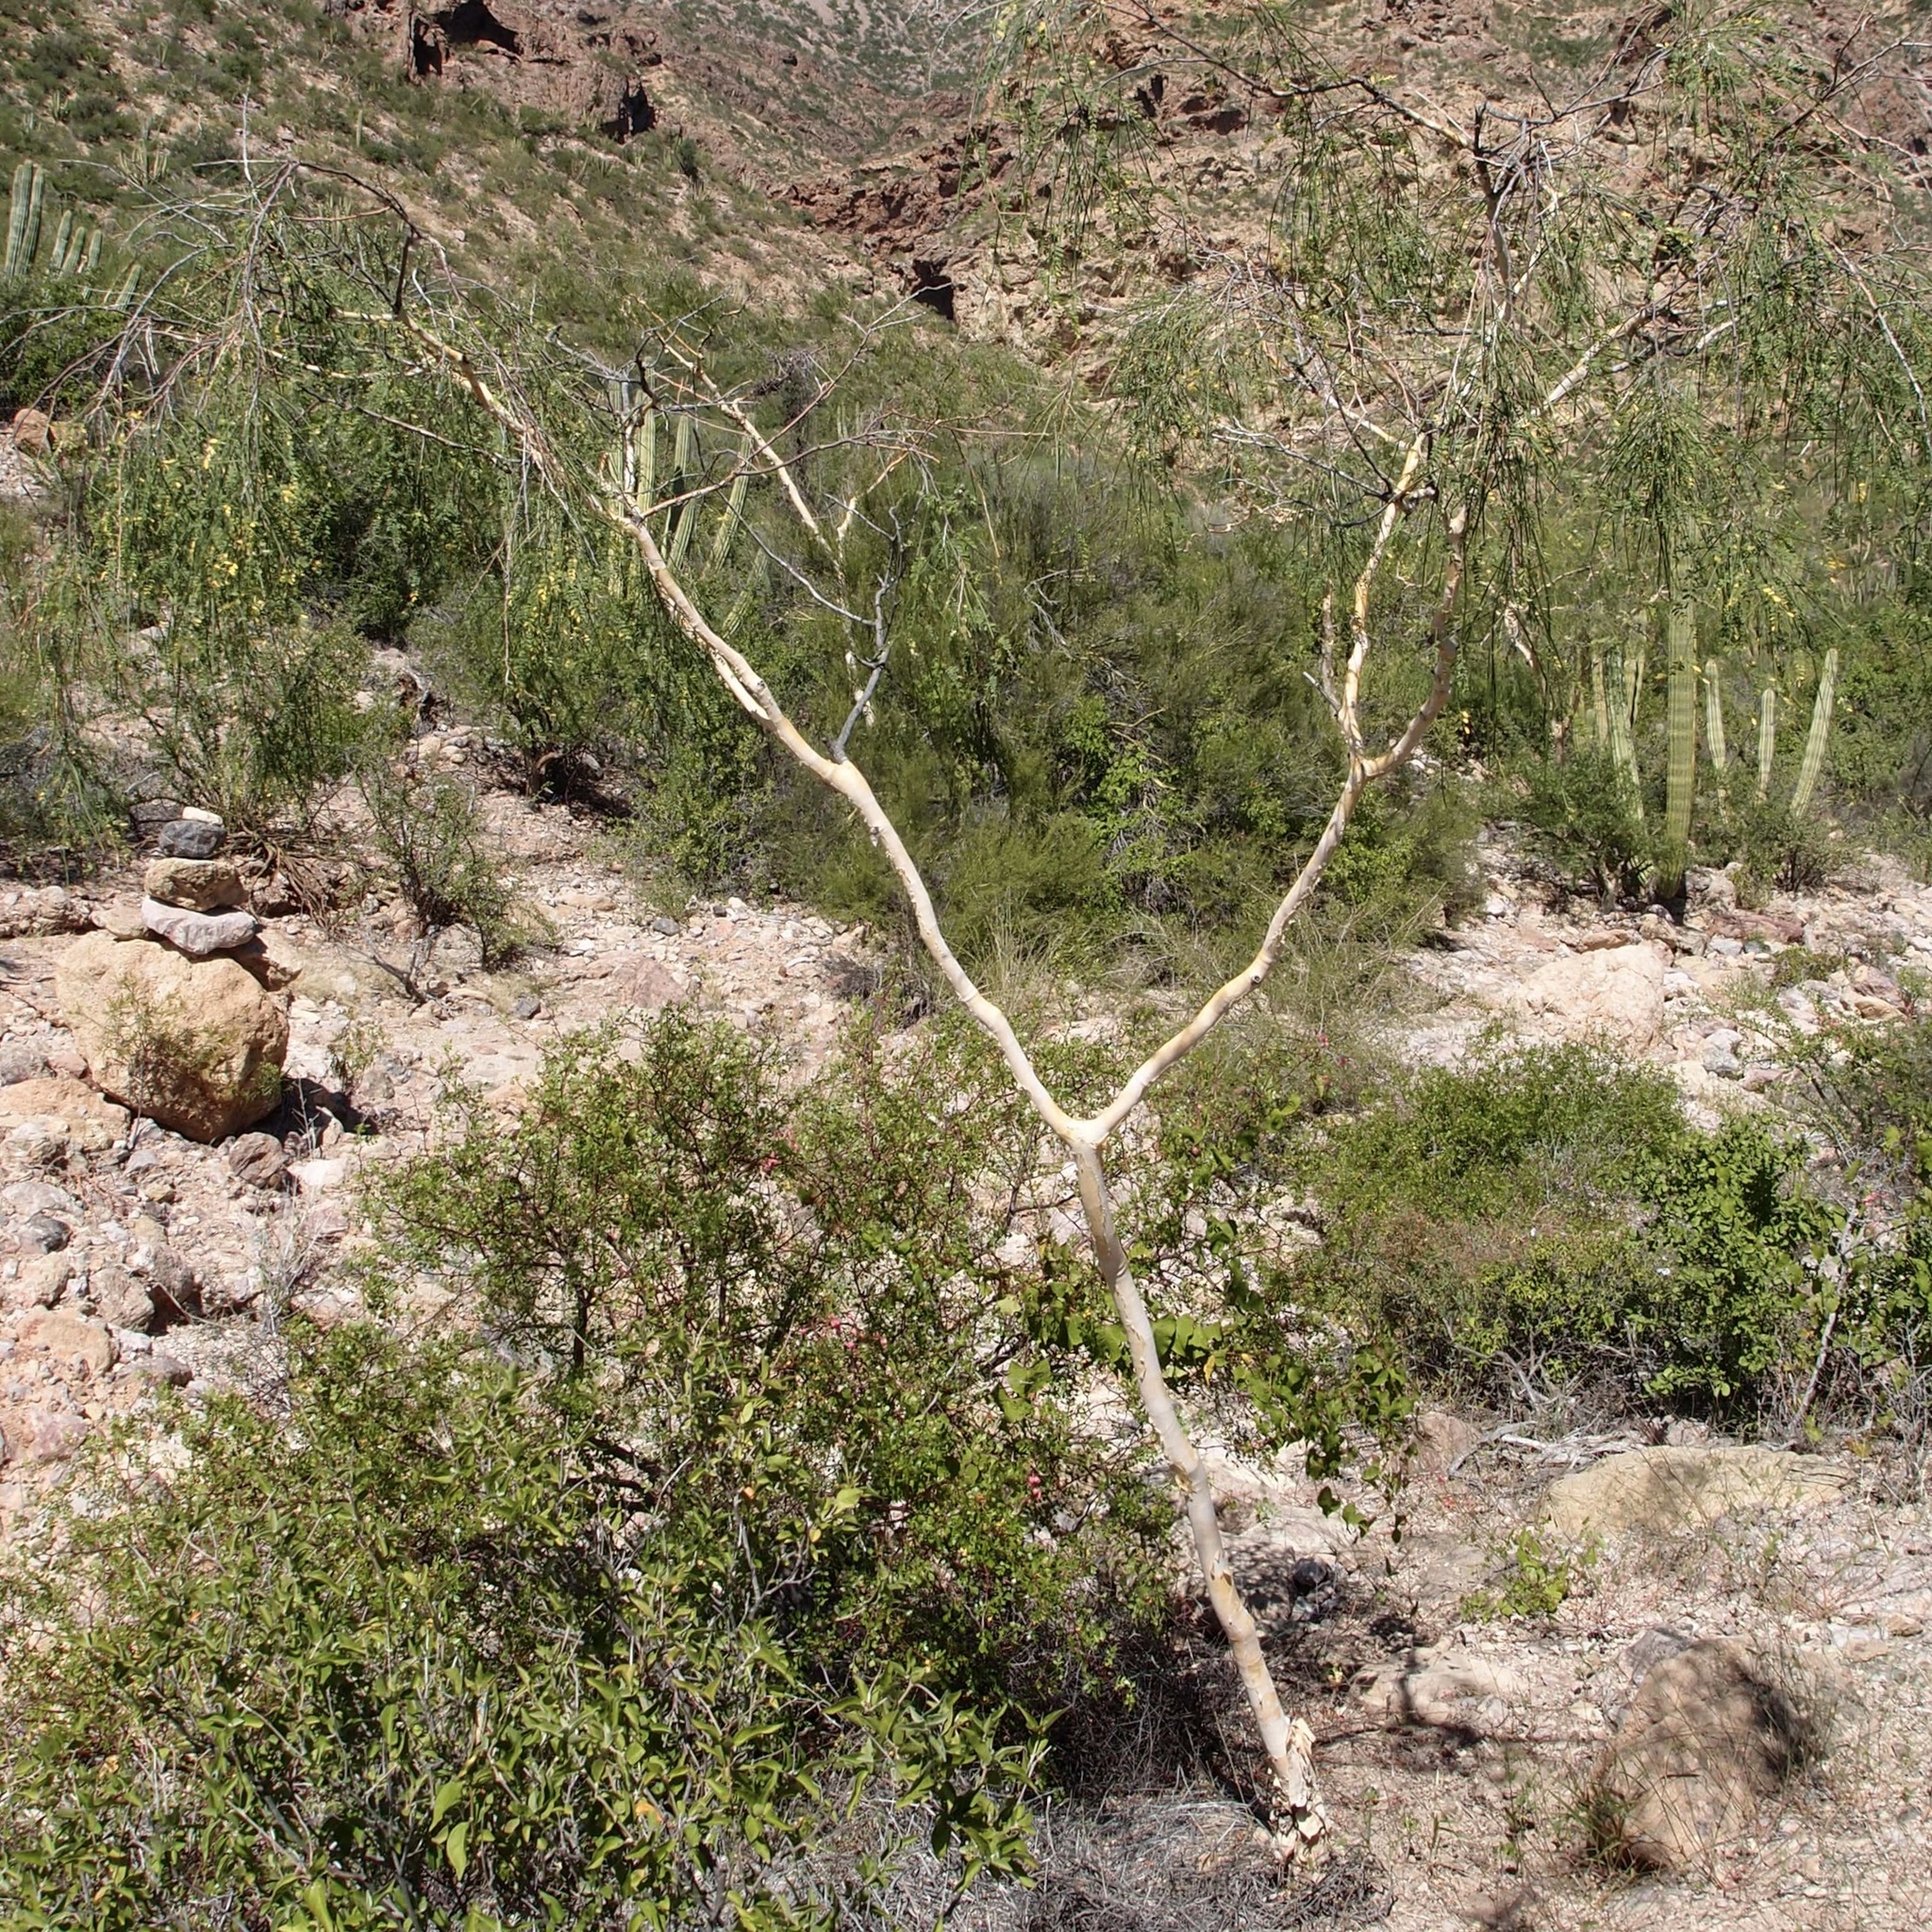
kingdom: Plantae
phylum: Tracheophyta
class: Magnoliopsida
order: Fabales
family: Fabaceae
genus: Mariosousa
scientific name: Mariosousa heterophylla
